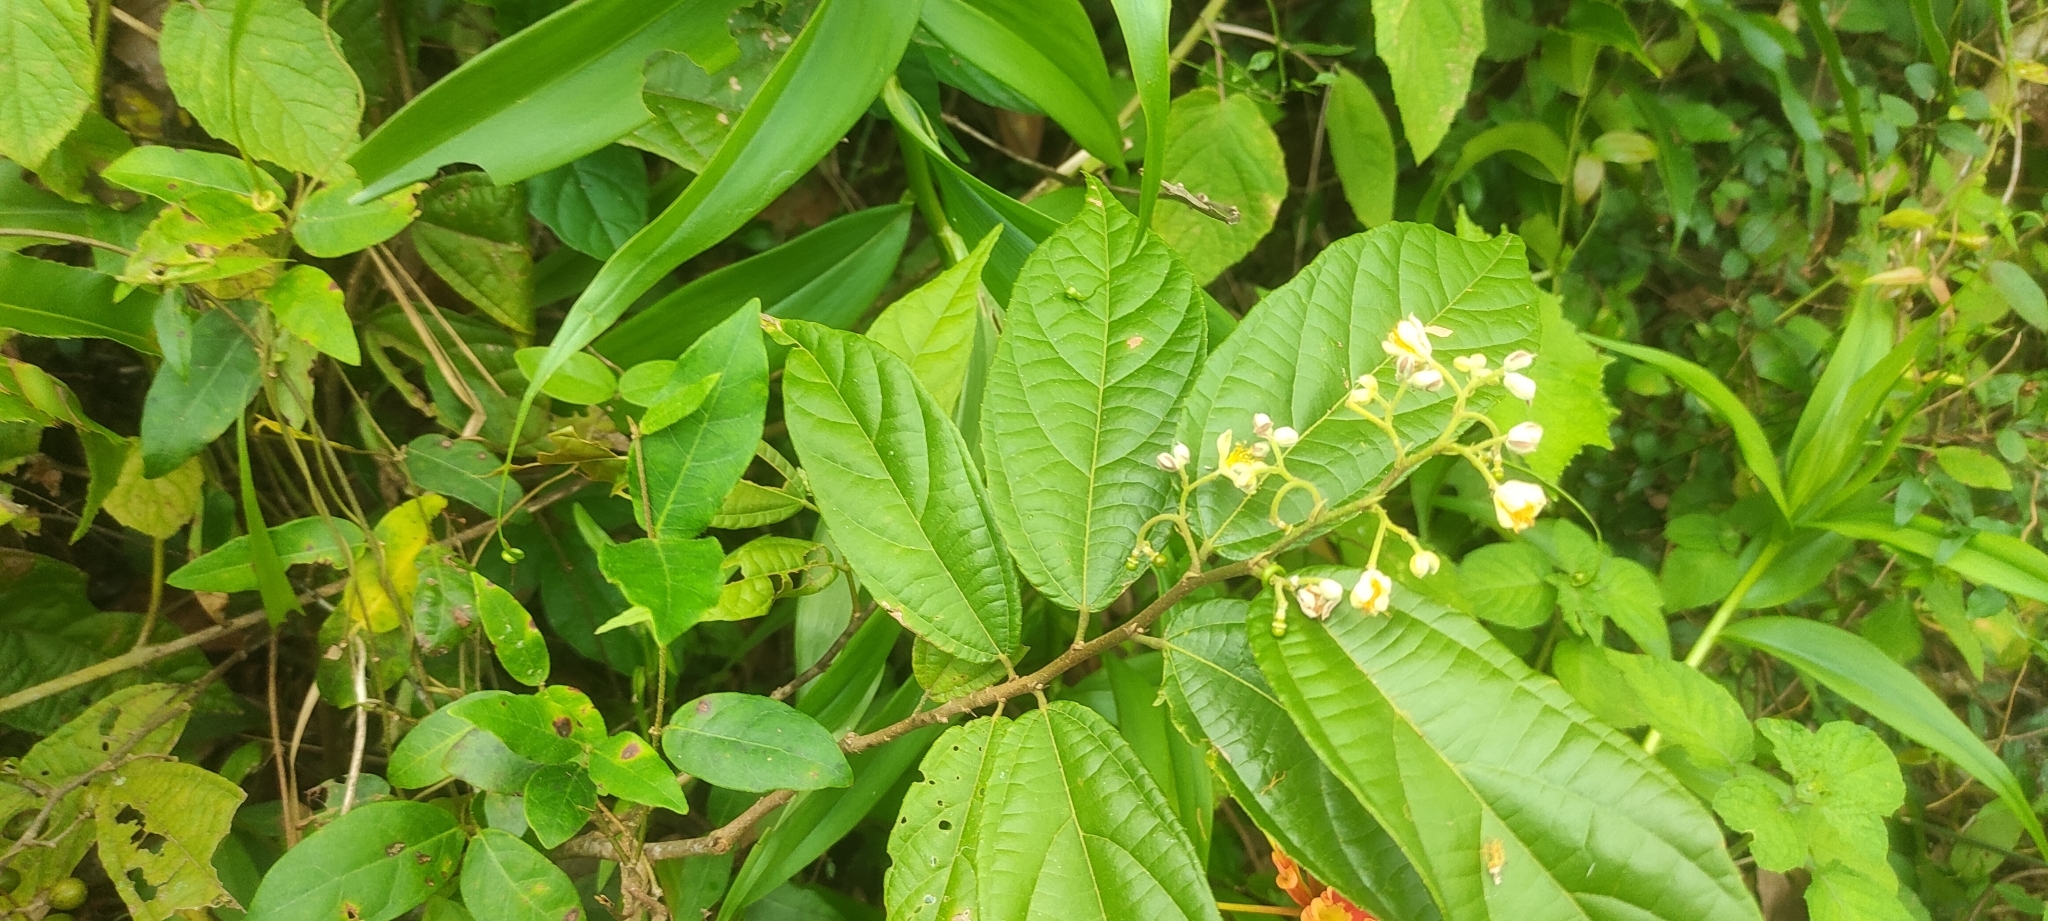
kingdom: Plantae
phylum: Tracheophyta
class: Magnoliopsida
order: Malvales
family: Malvaceae
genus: Microcos
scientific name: Microcos paniculata
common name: Microcos
